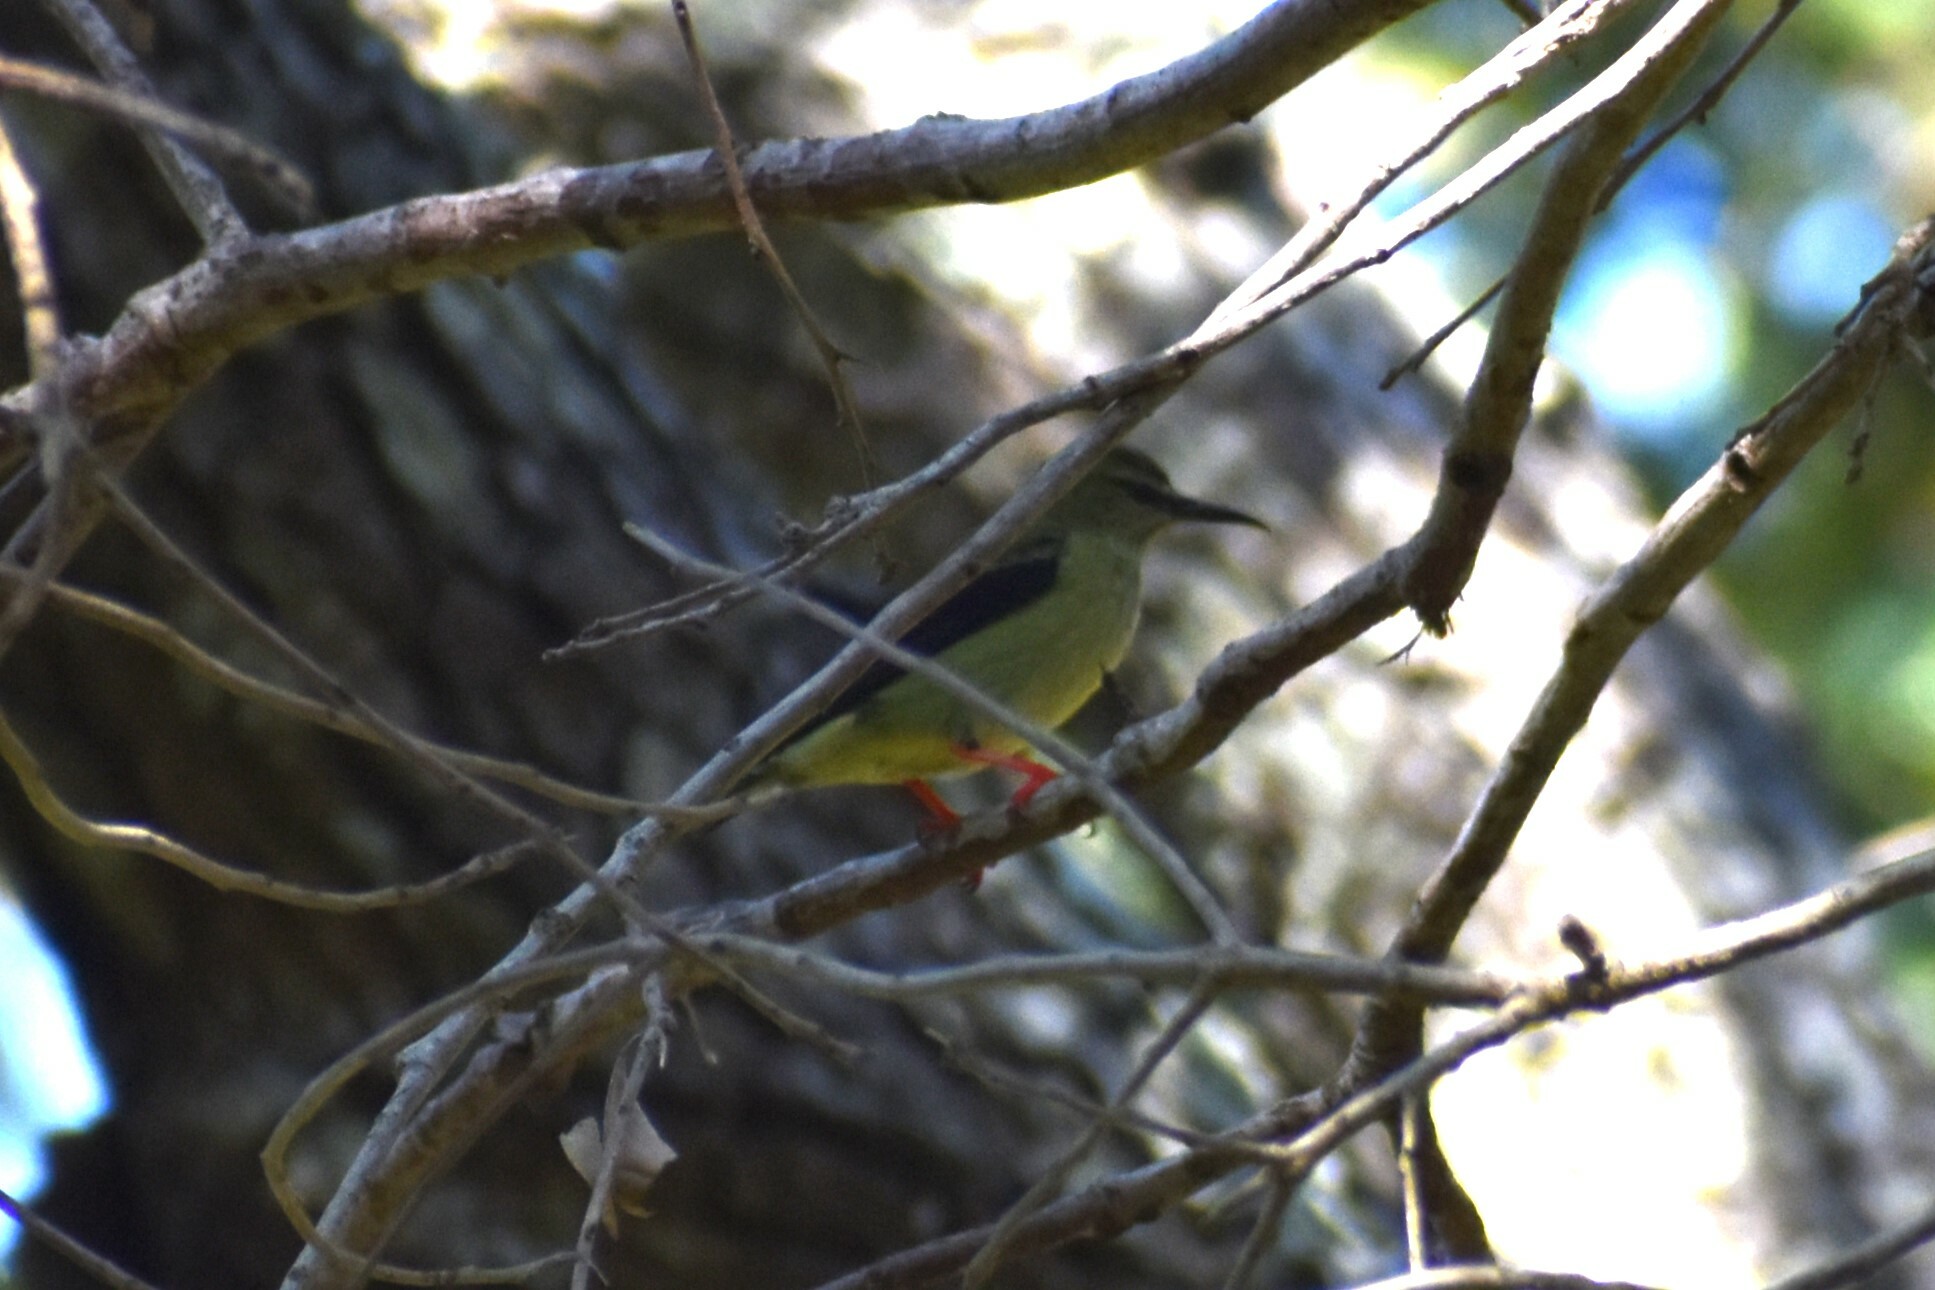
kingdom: Animalia
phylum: Chordata
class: Aves
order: Passeriformes
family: Thraupidae
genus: Cyanerpes
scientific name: Cyanerpes cyaneus
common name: Red-legged honeycreeper
